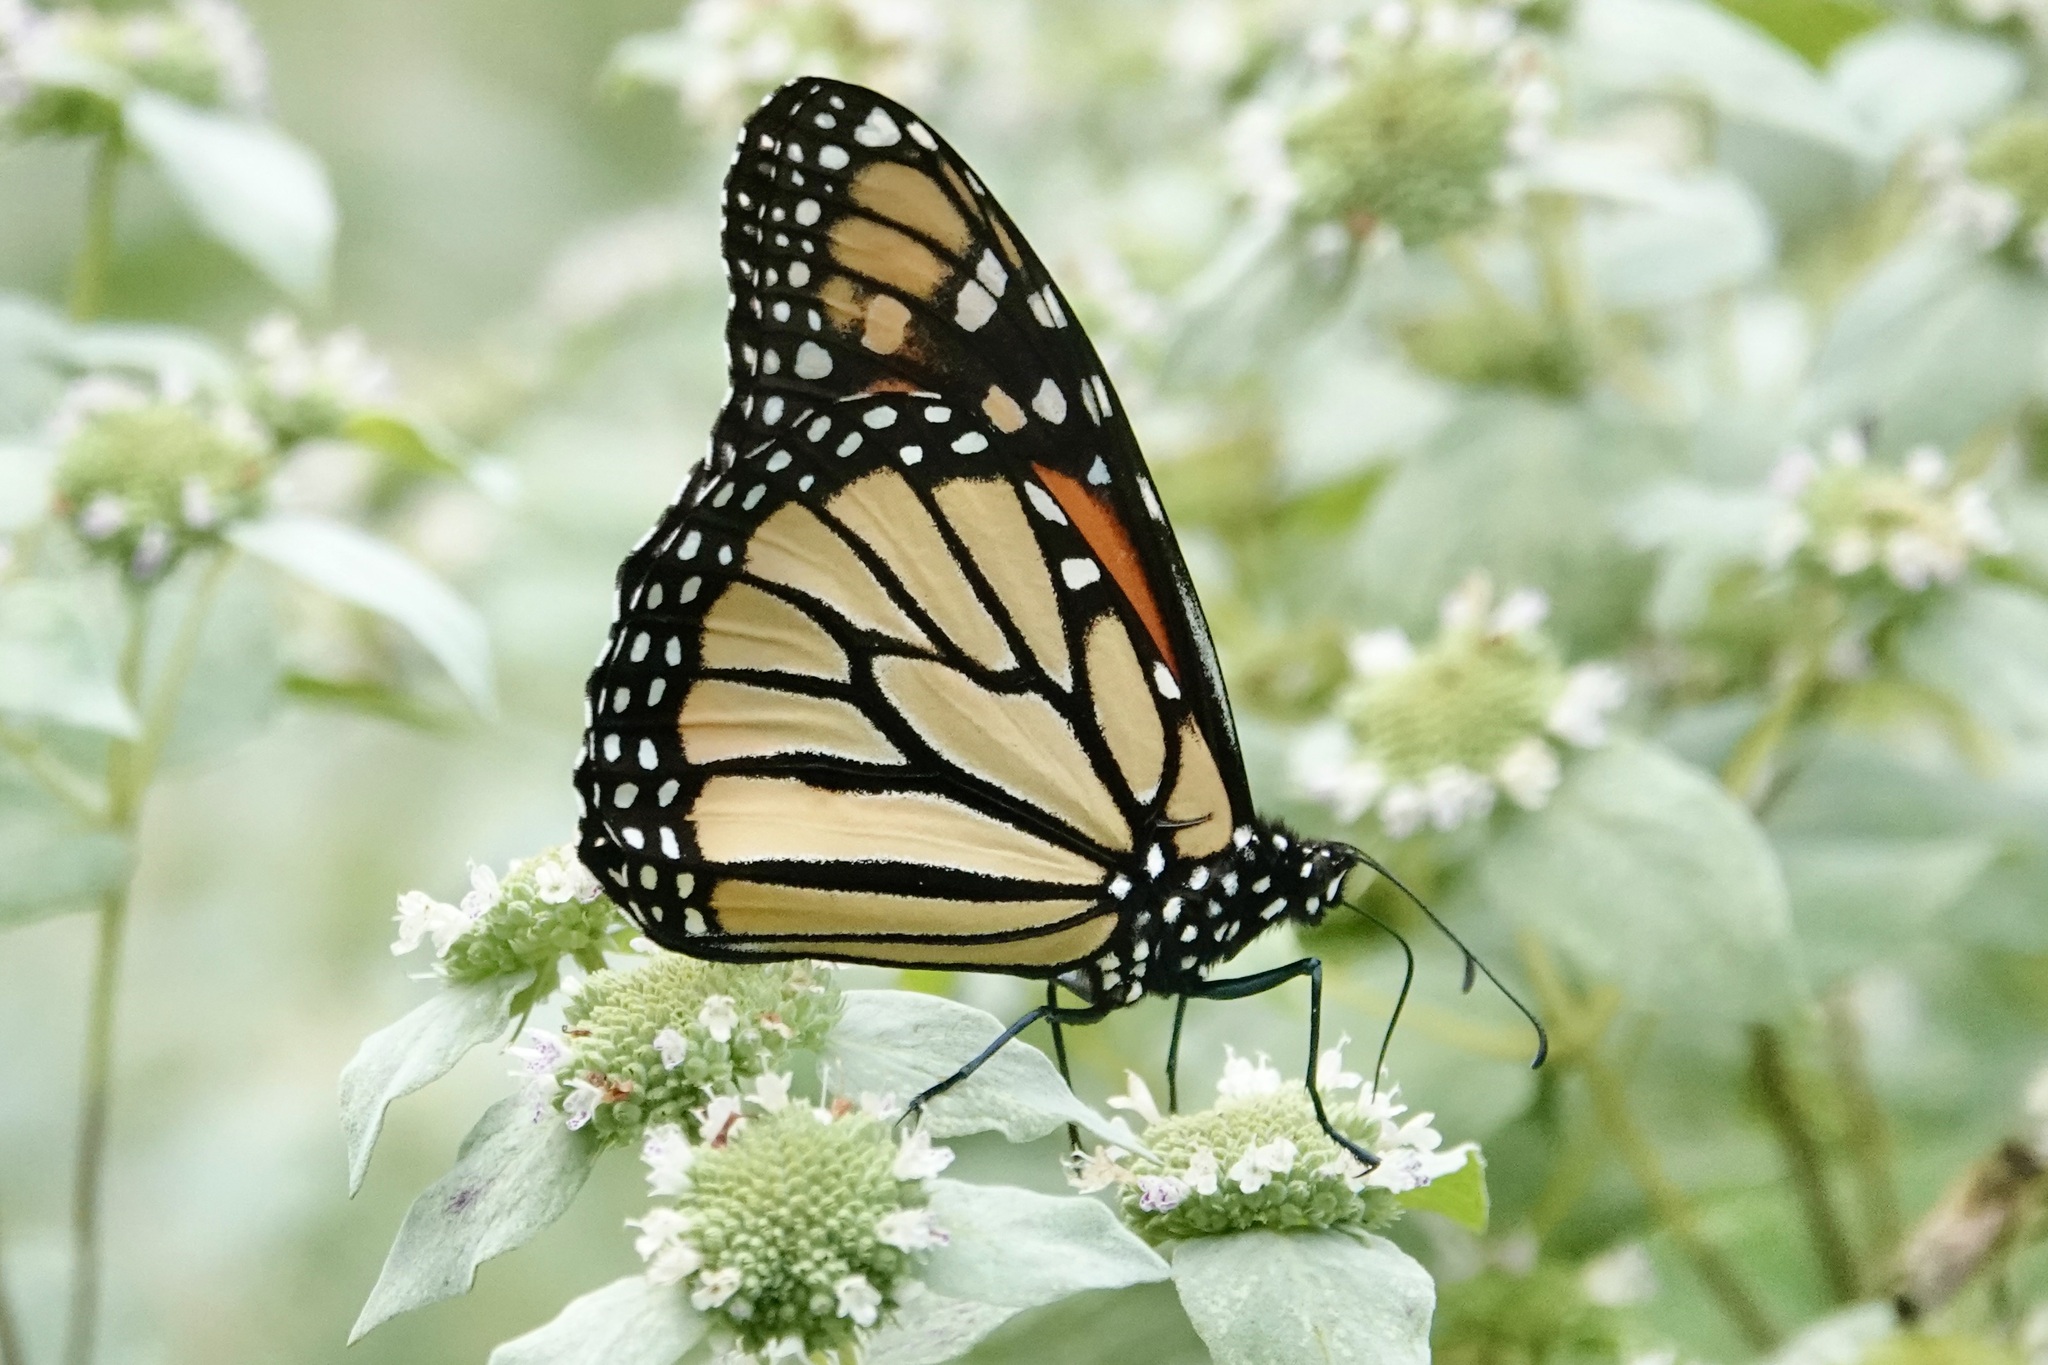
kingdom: Animalia
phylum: Arthropoda
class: Insecta
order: Lepidoptera
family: Nymphalidae
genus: Danaus
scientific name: Danaus plexippus
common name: Monarch
